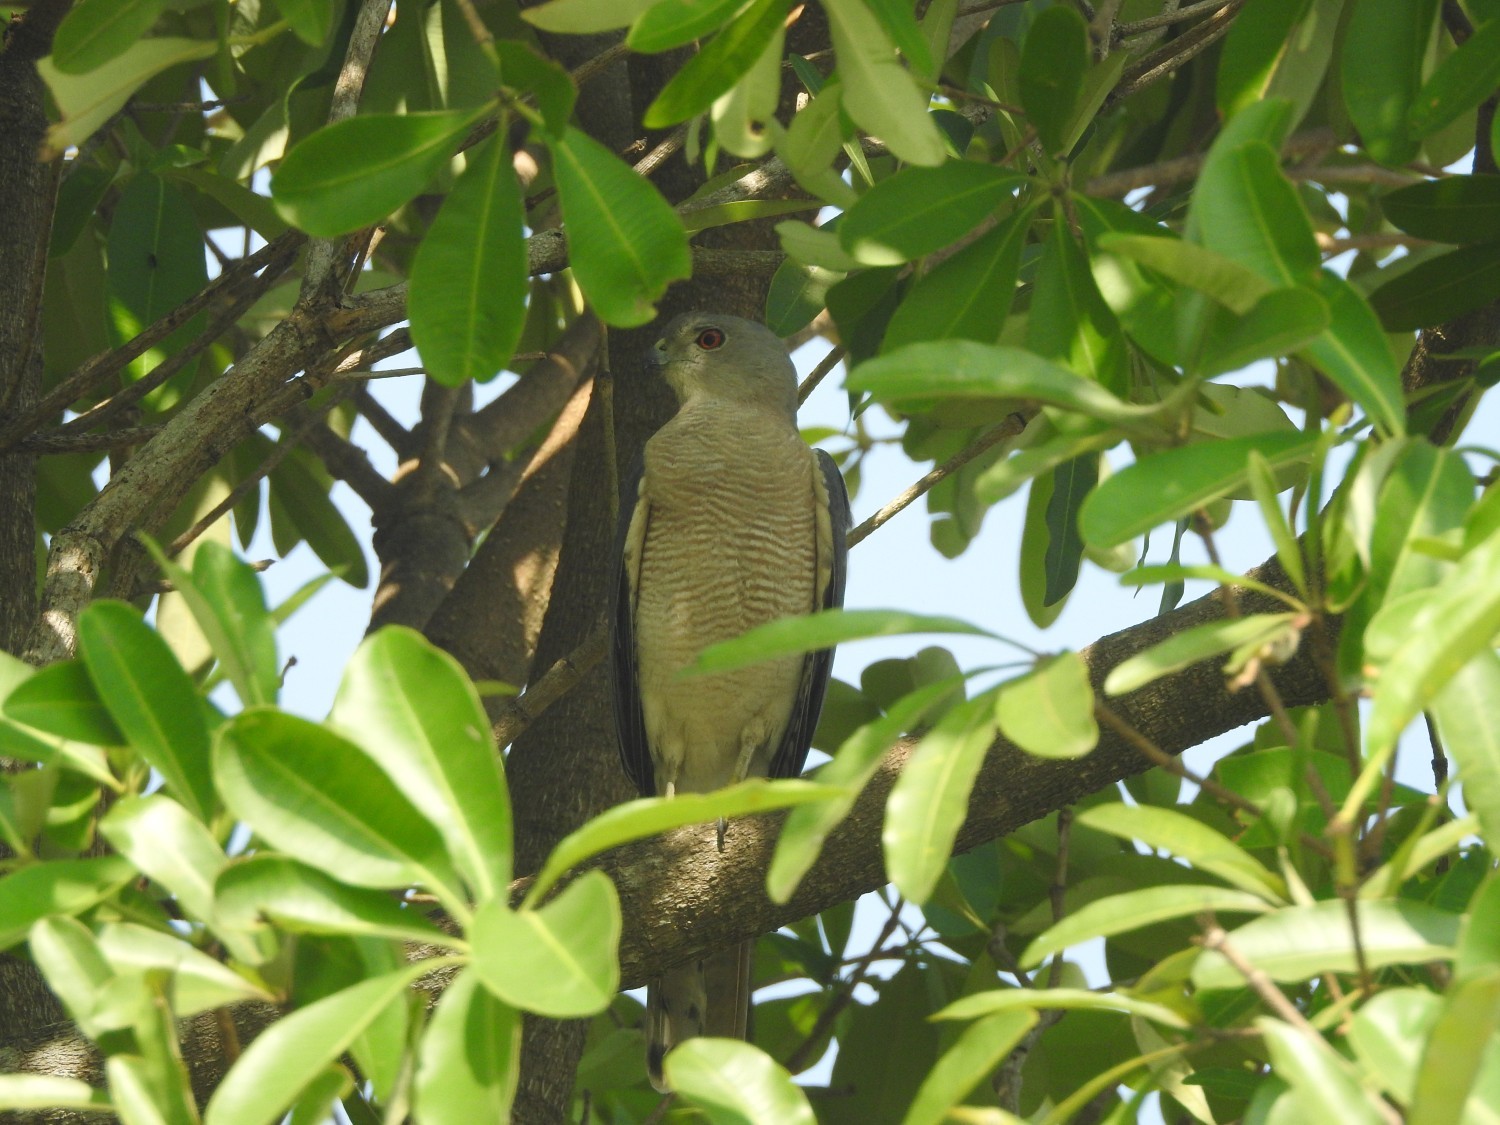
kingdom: Animalia
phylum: Chordata
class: Aves
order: Accipitriformes
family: Accipitridae
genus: Accipiter
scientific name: Accipiter badius
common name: Shikra
